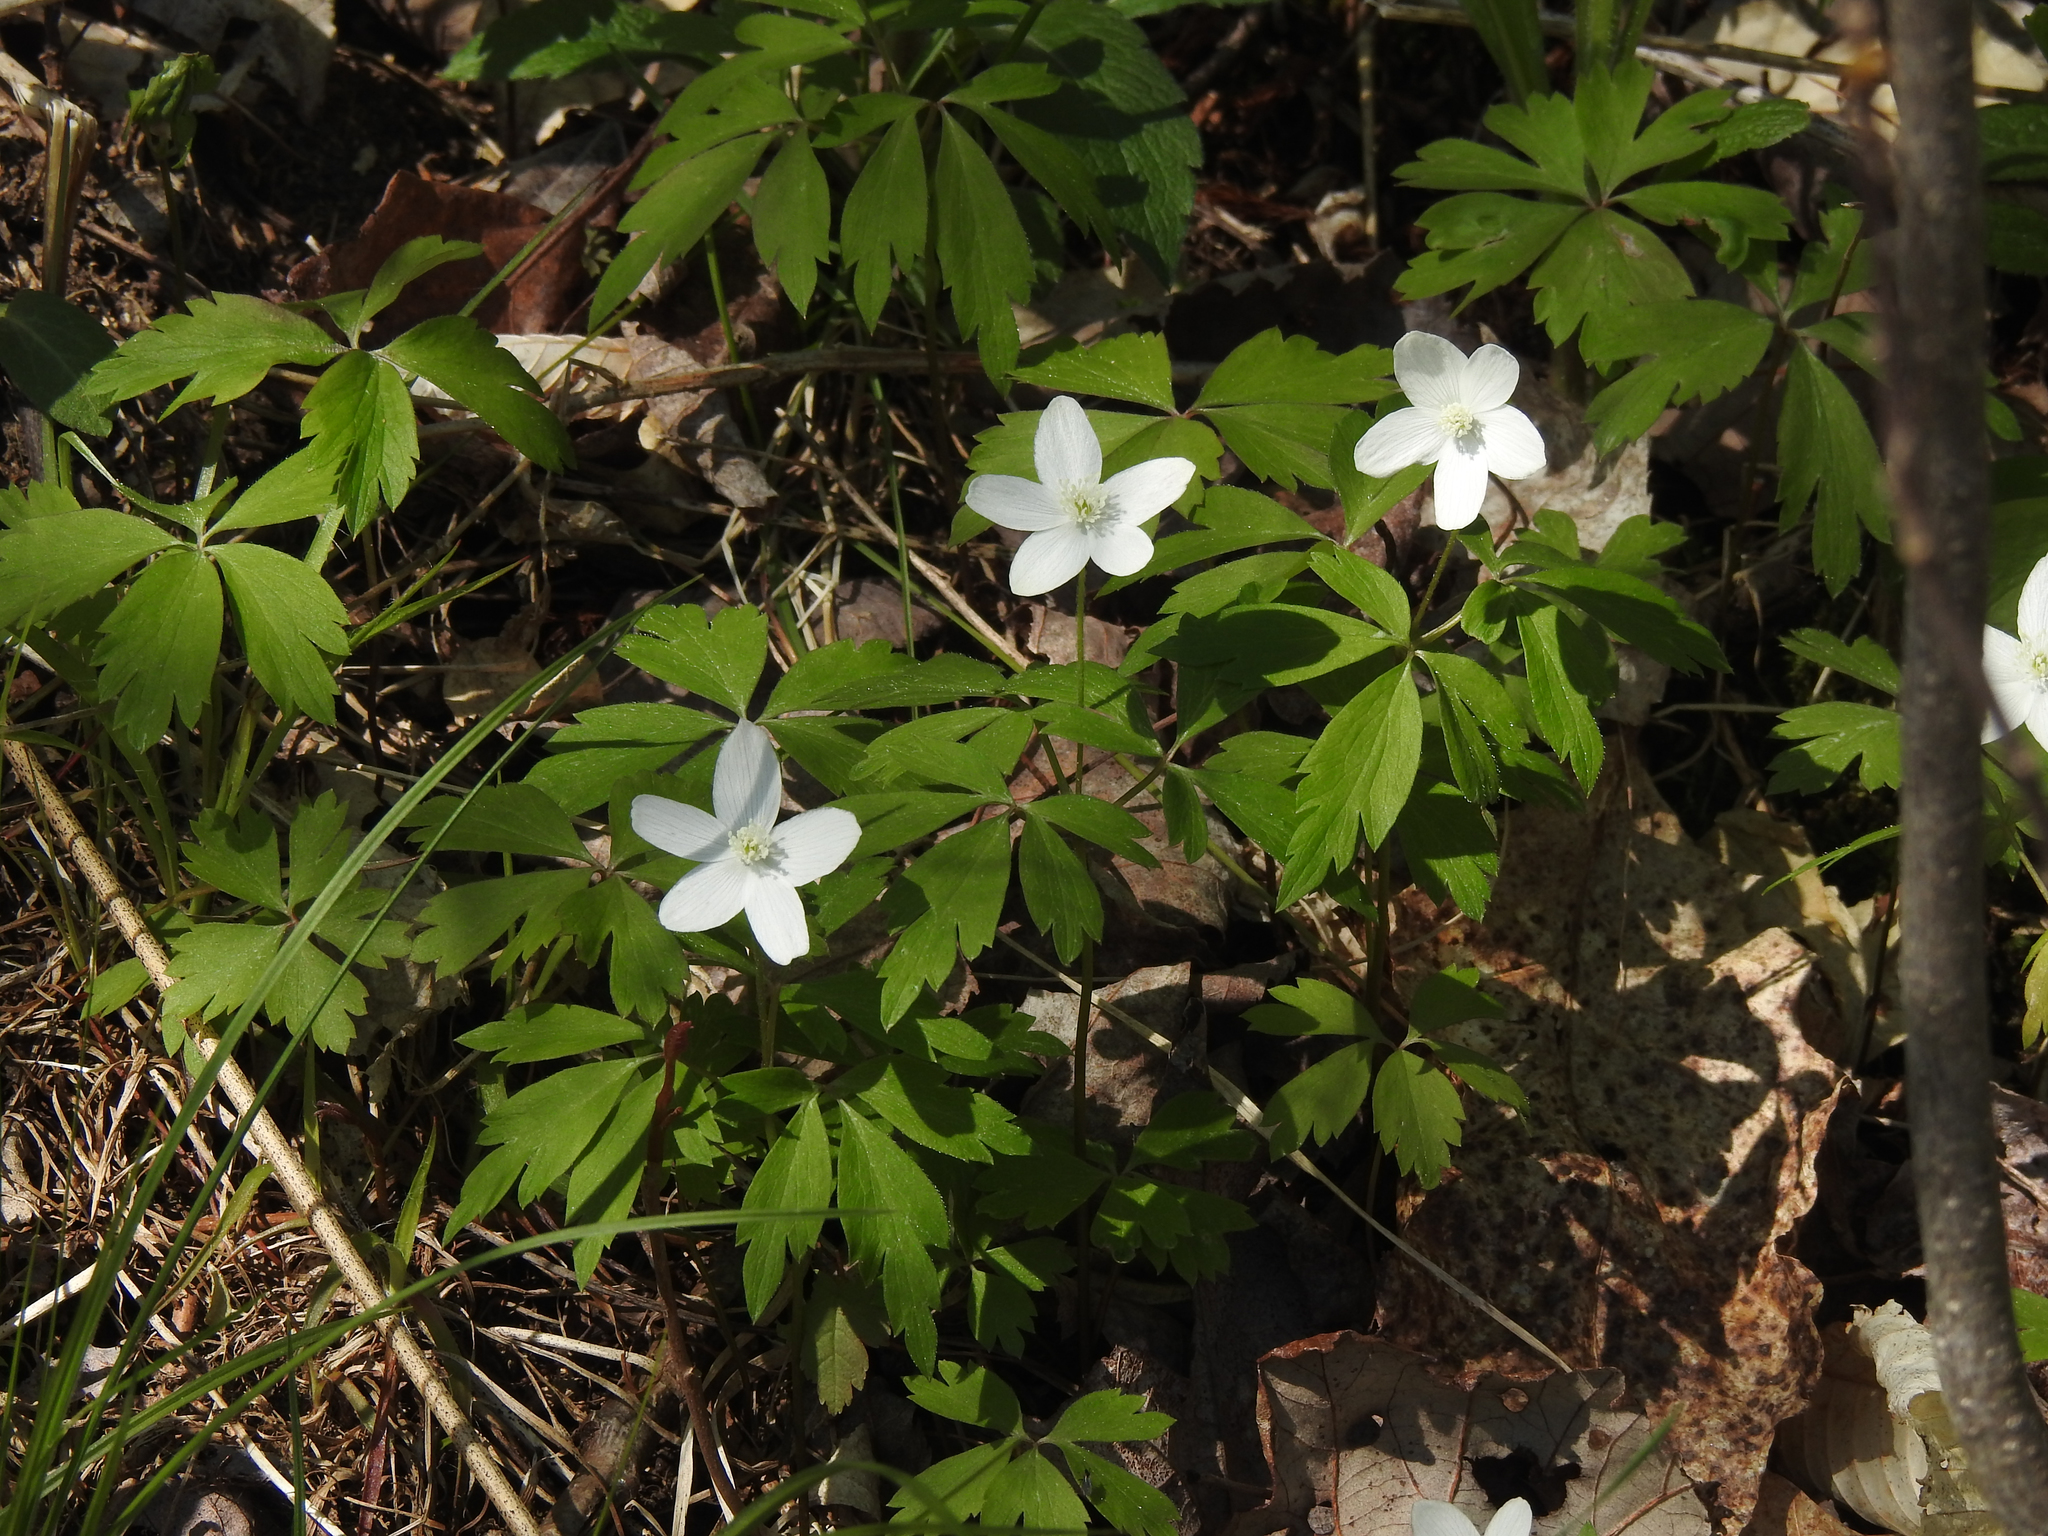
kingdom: Plantae
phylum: Tracheophyta
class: Magnoliopsida
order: Ranunculales
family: Ranunculaceae
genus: Anemone
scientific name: Anemone quinquefolia
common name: Wood anemone
